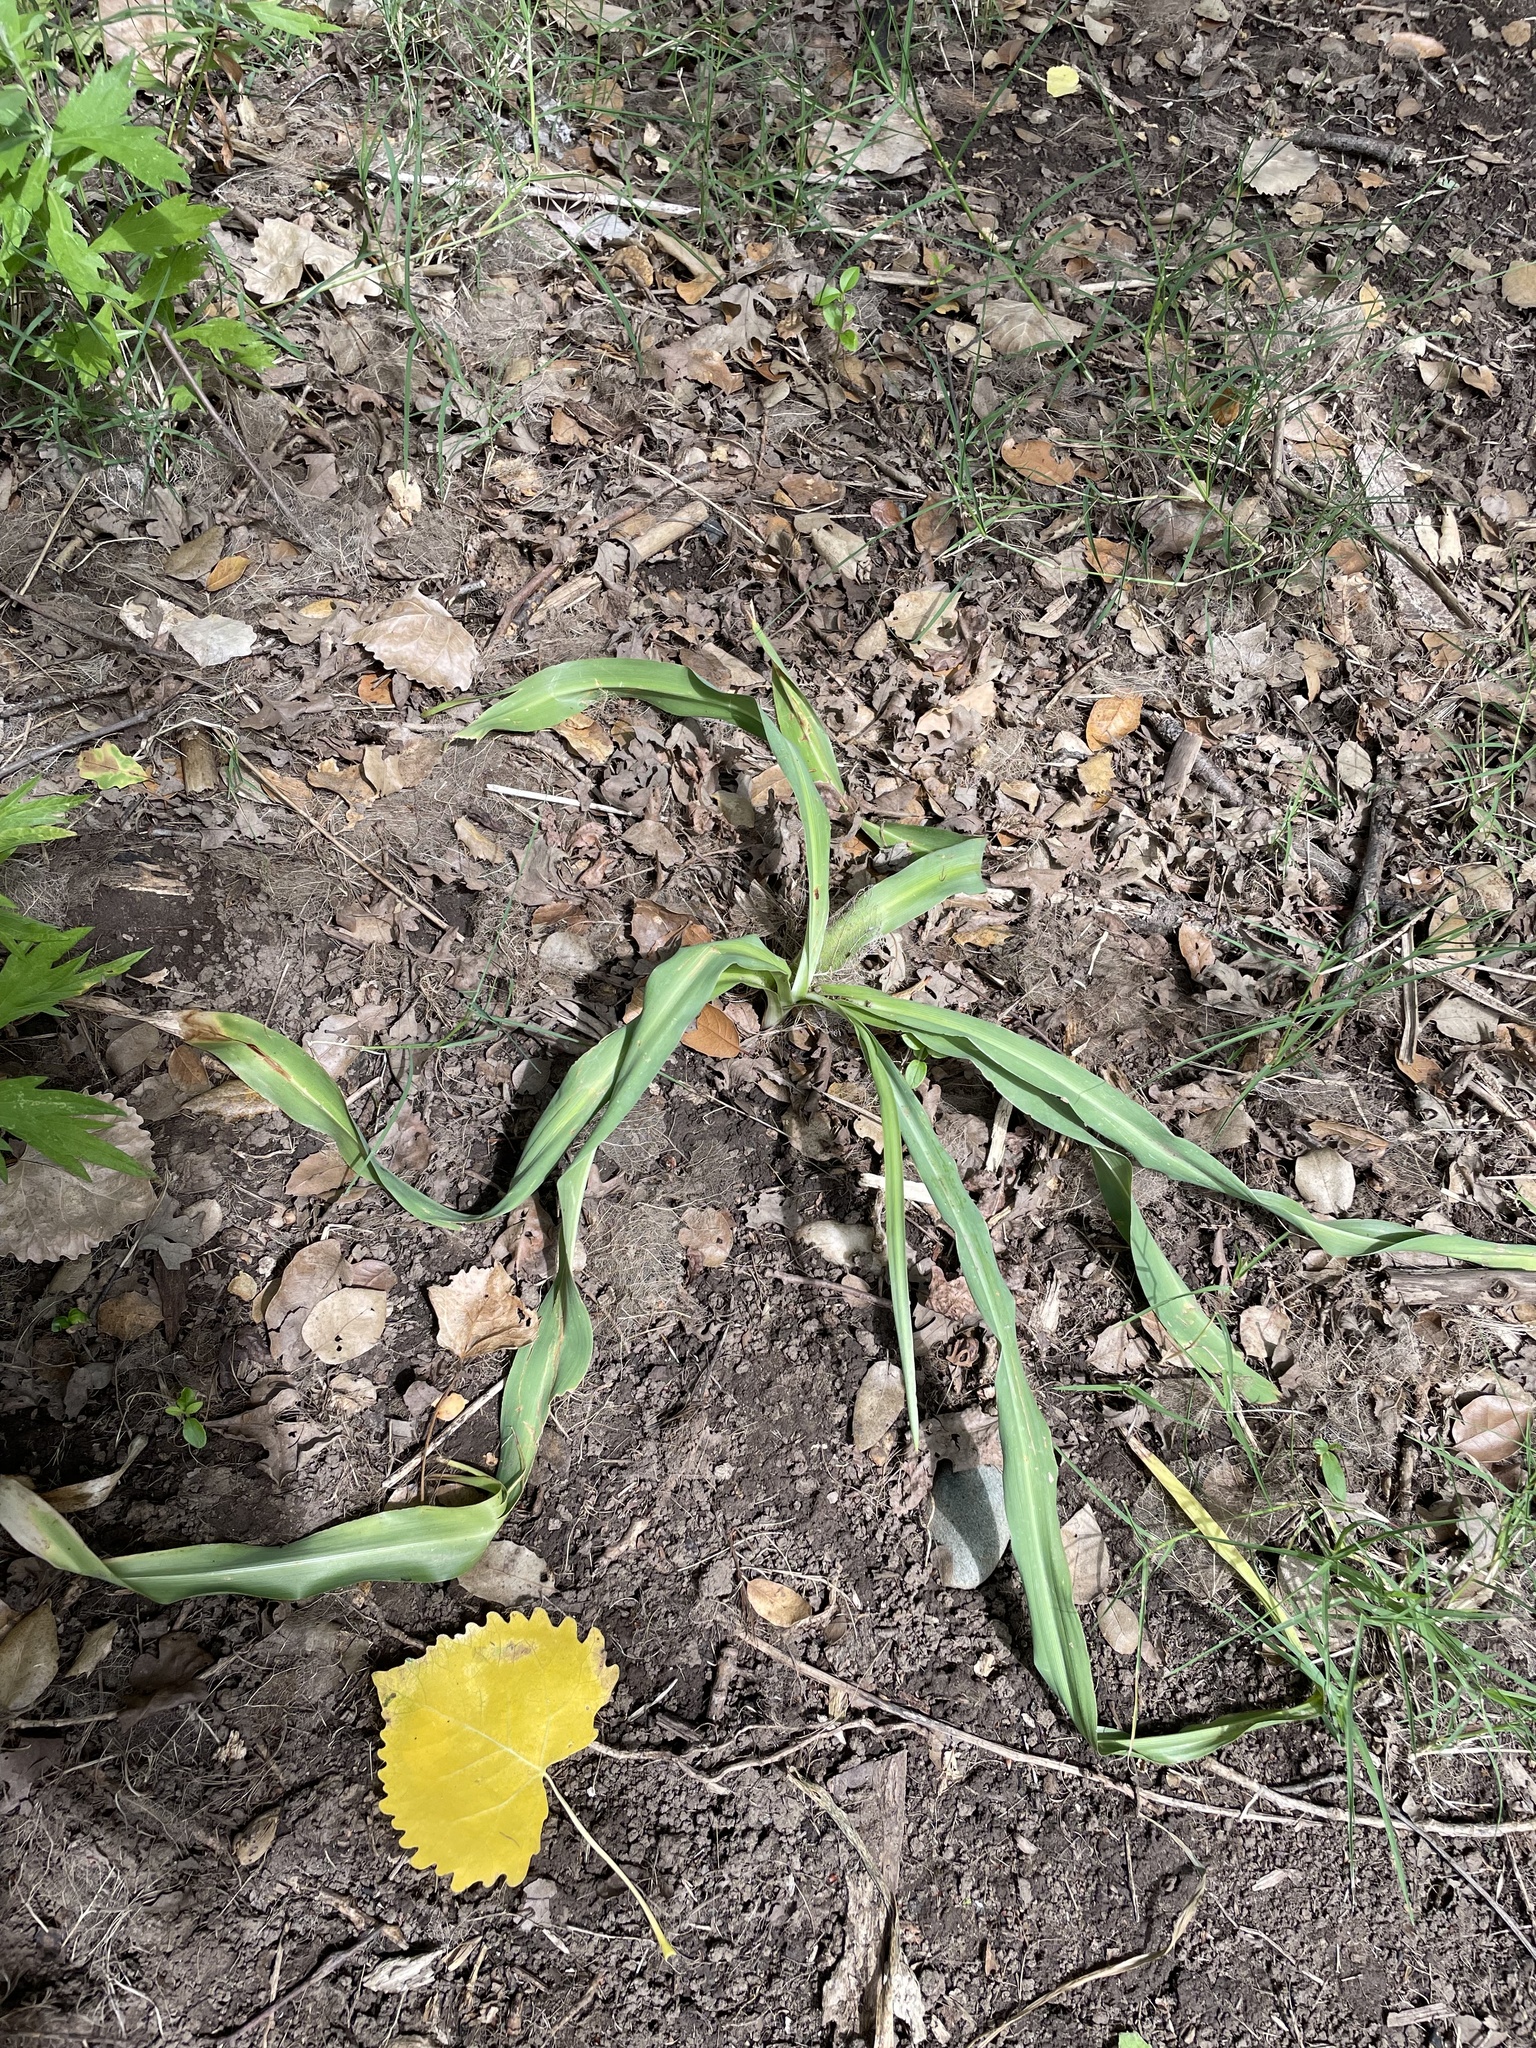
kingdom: Plantae
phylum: Tracheophyta
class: Liliopsida
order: Asparagales
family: Asparagaceae
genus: Chlorogalum
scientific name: Chlorogalum pomeridianum
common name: Amole
